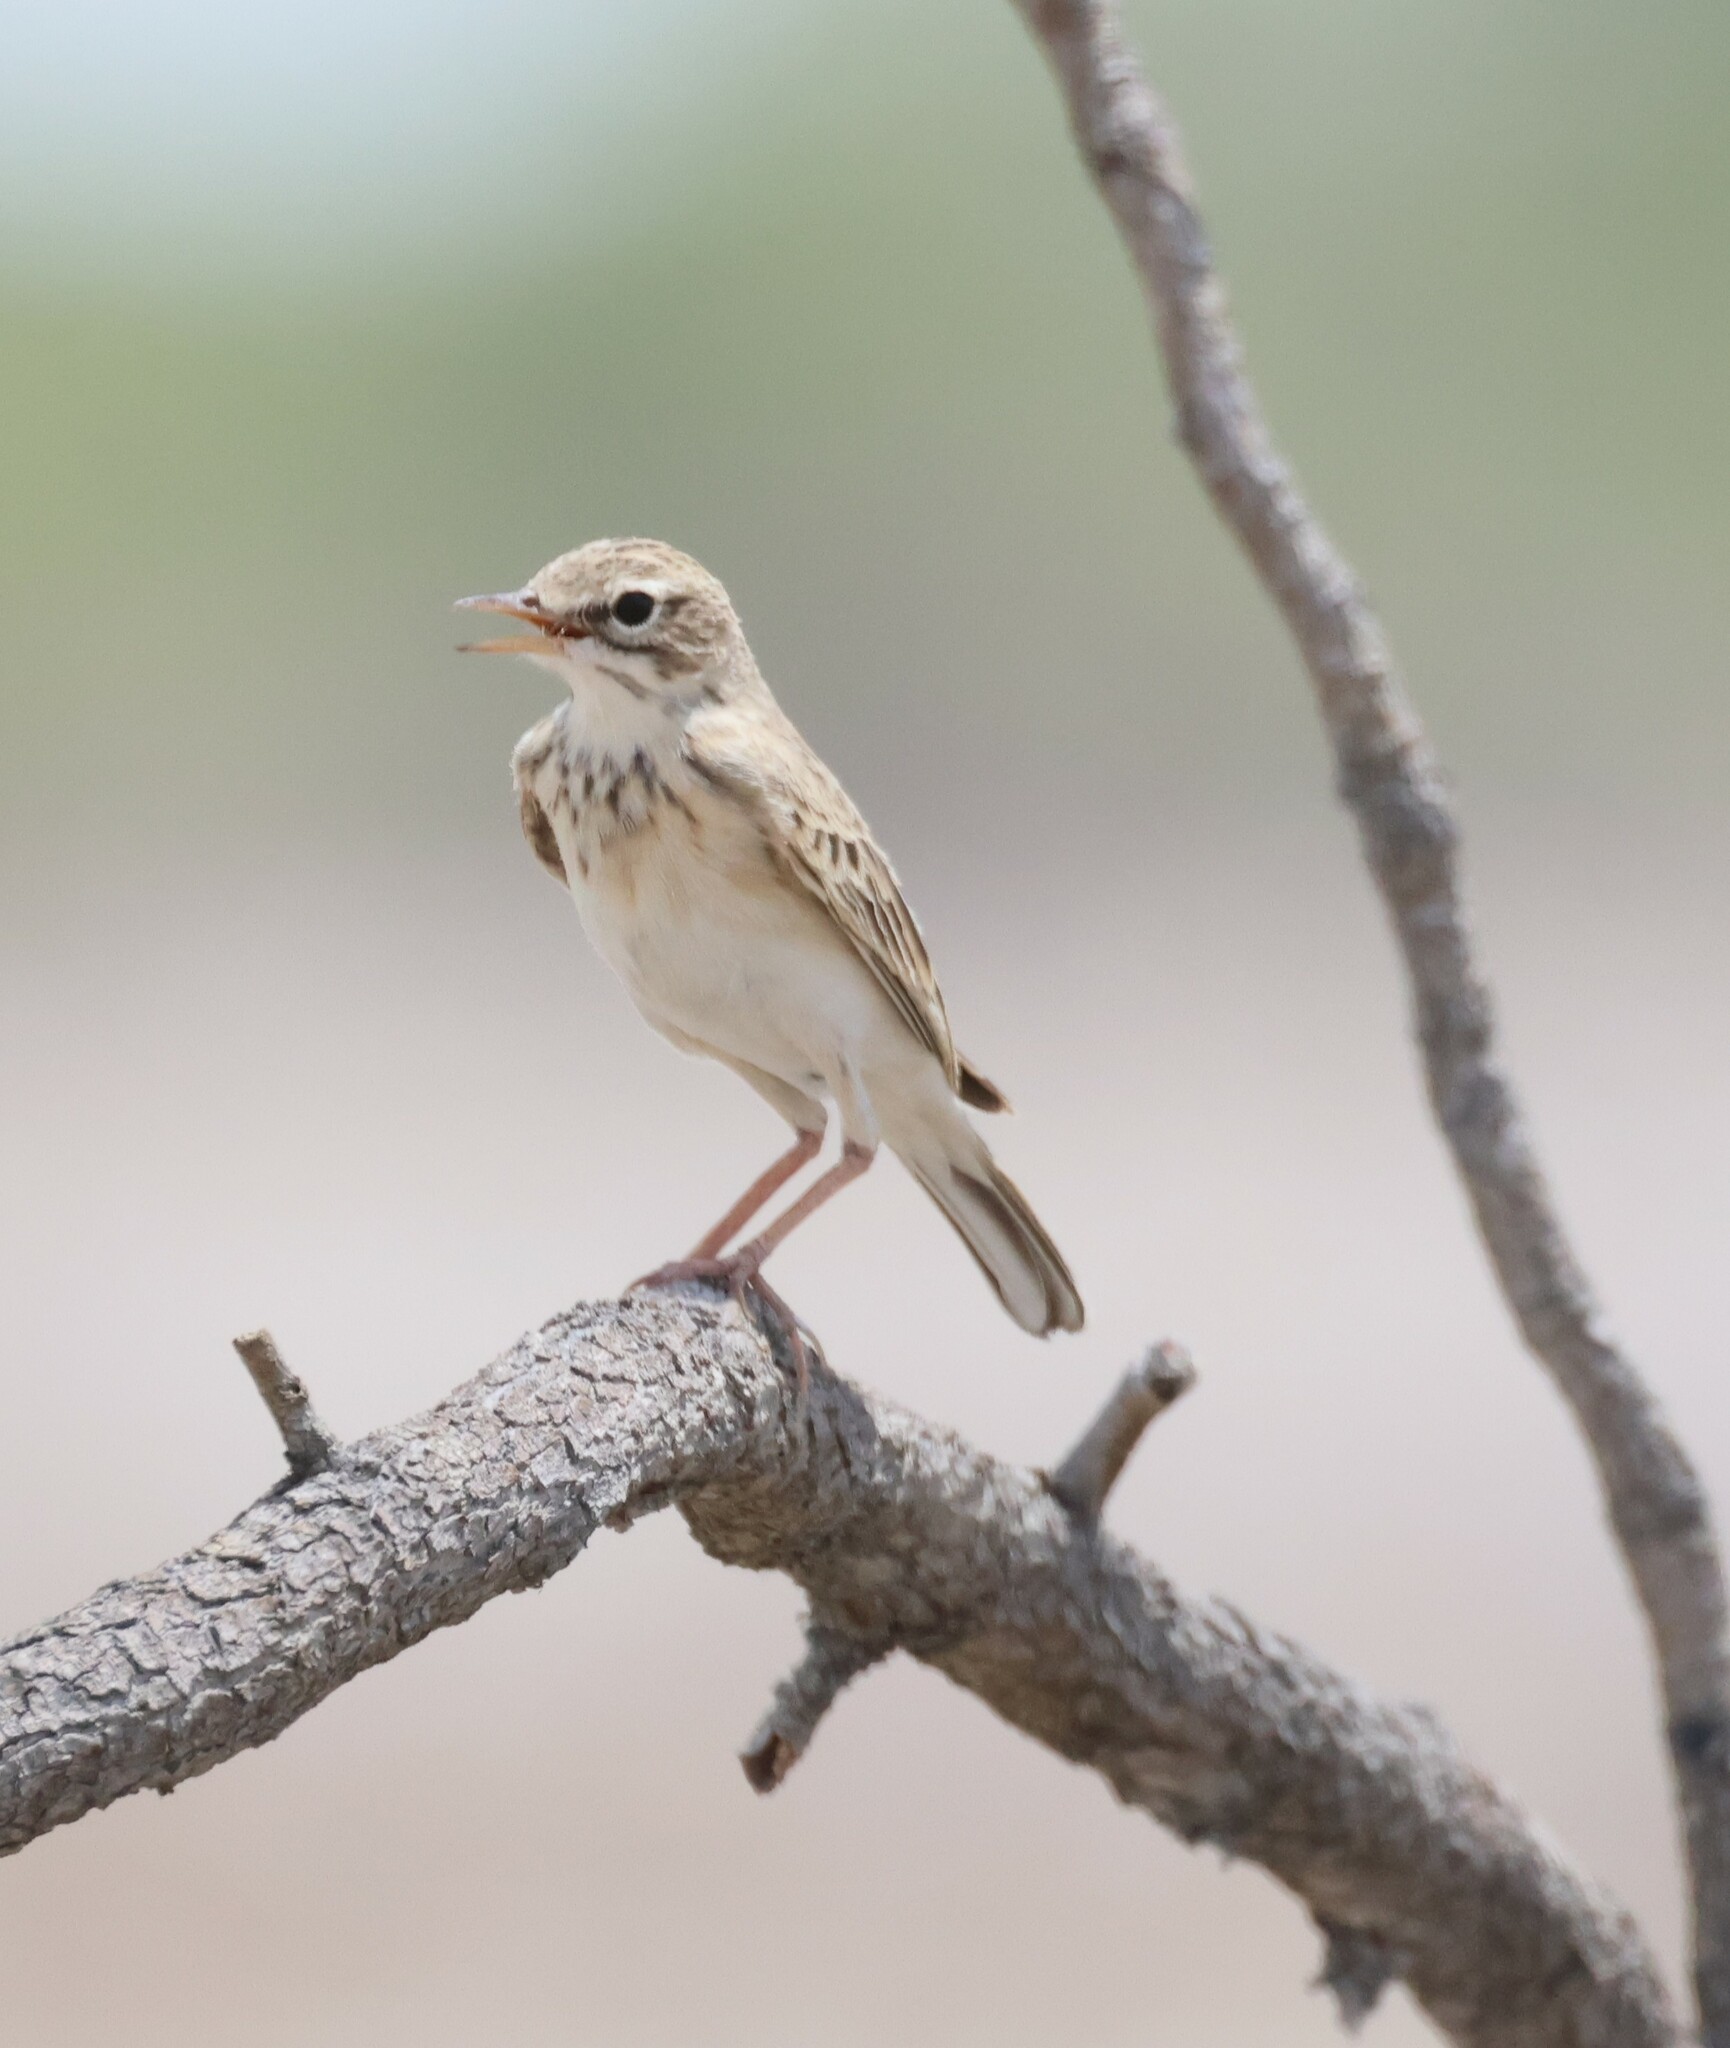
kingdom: Animalia
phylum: Chordata
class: Aves
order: Passeriformes
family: Motacillidae
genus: Anthus
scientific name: Anthus cinnamomeus
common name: African pipit
